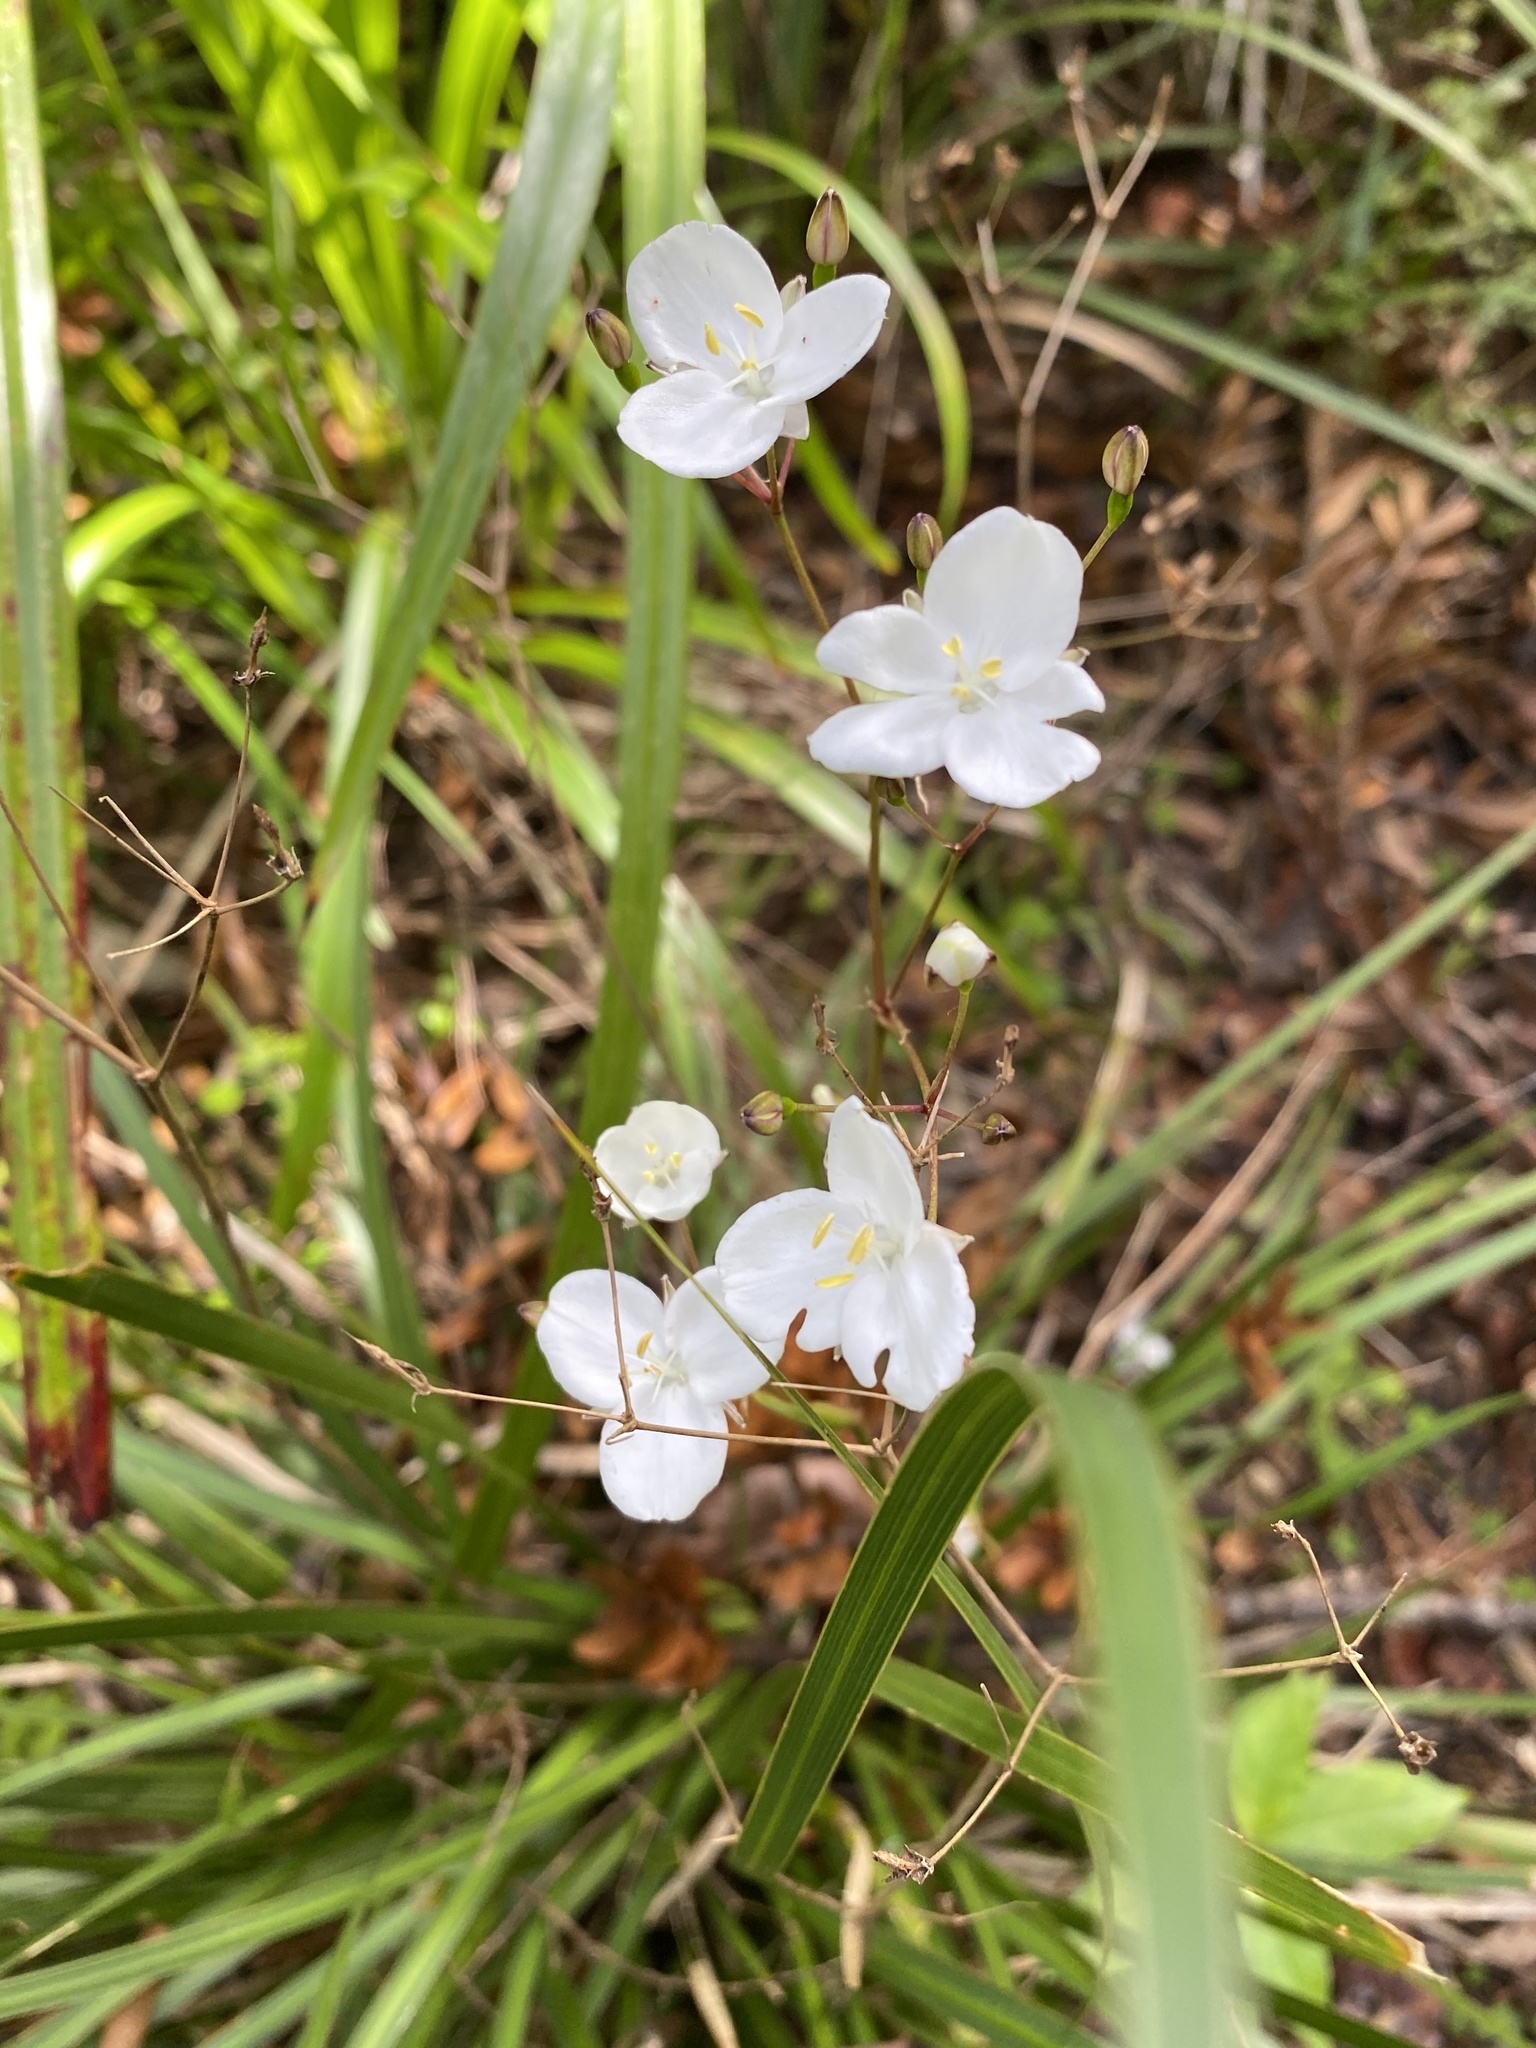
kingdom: Plantae
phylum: Tracheophyta
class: Liliopsida
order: Asparagales
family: Iridaceae
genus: Libertia
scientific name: Libertia ixioides
